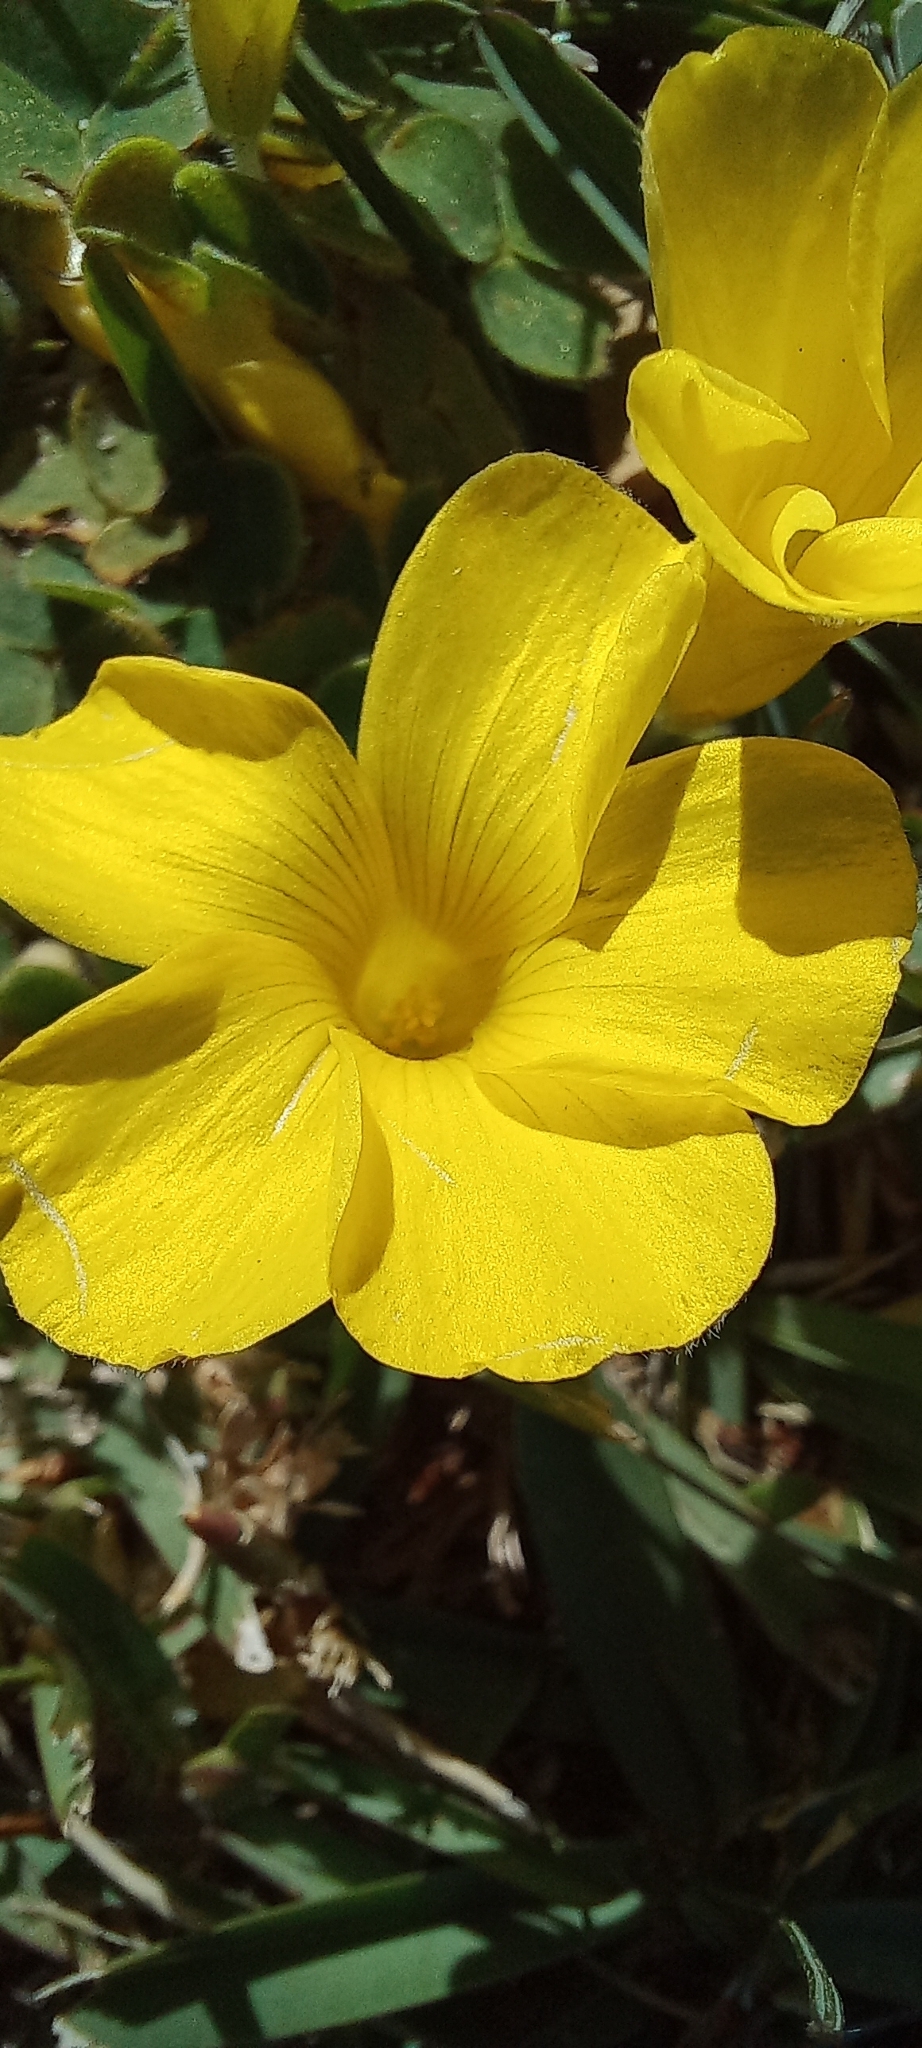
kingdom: Plantae
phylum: Tracheophyta
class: Magnoliopsida
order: Oxalidales
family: Oxalidaceae
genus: Oxalis
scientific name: Oxalis luteola
